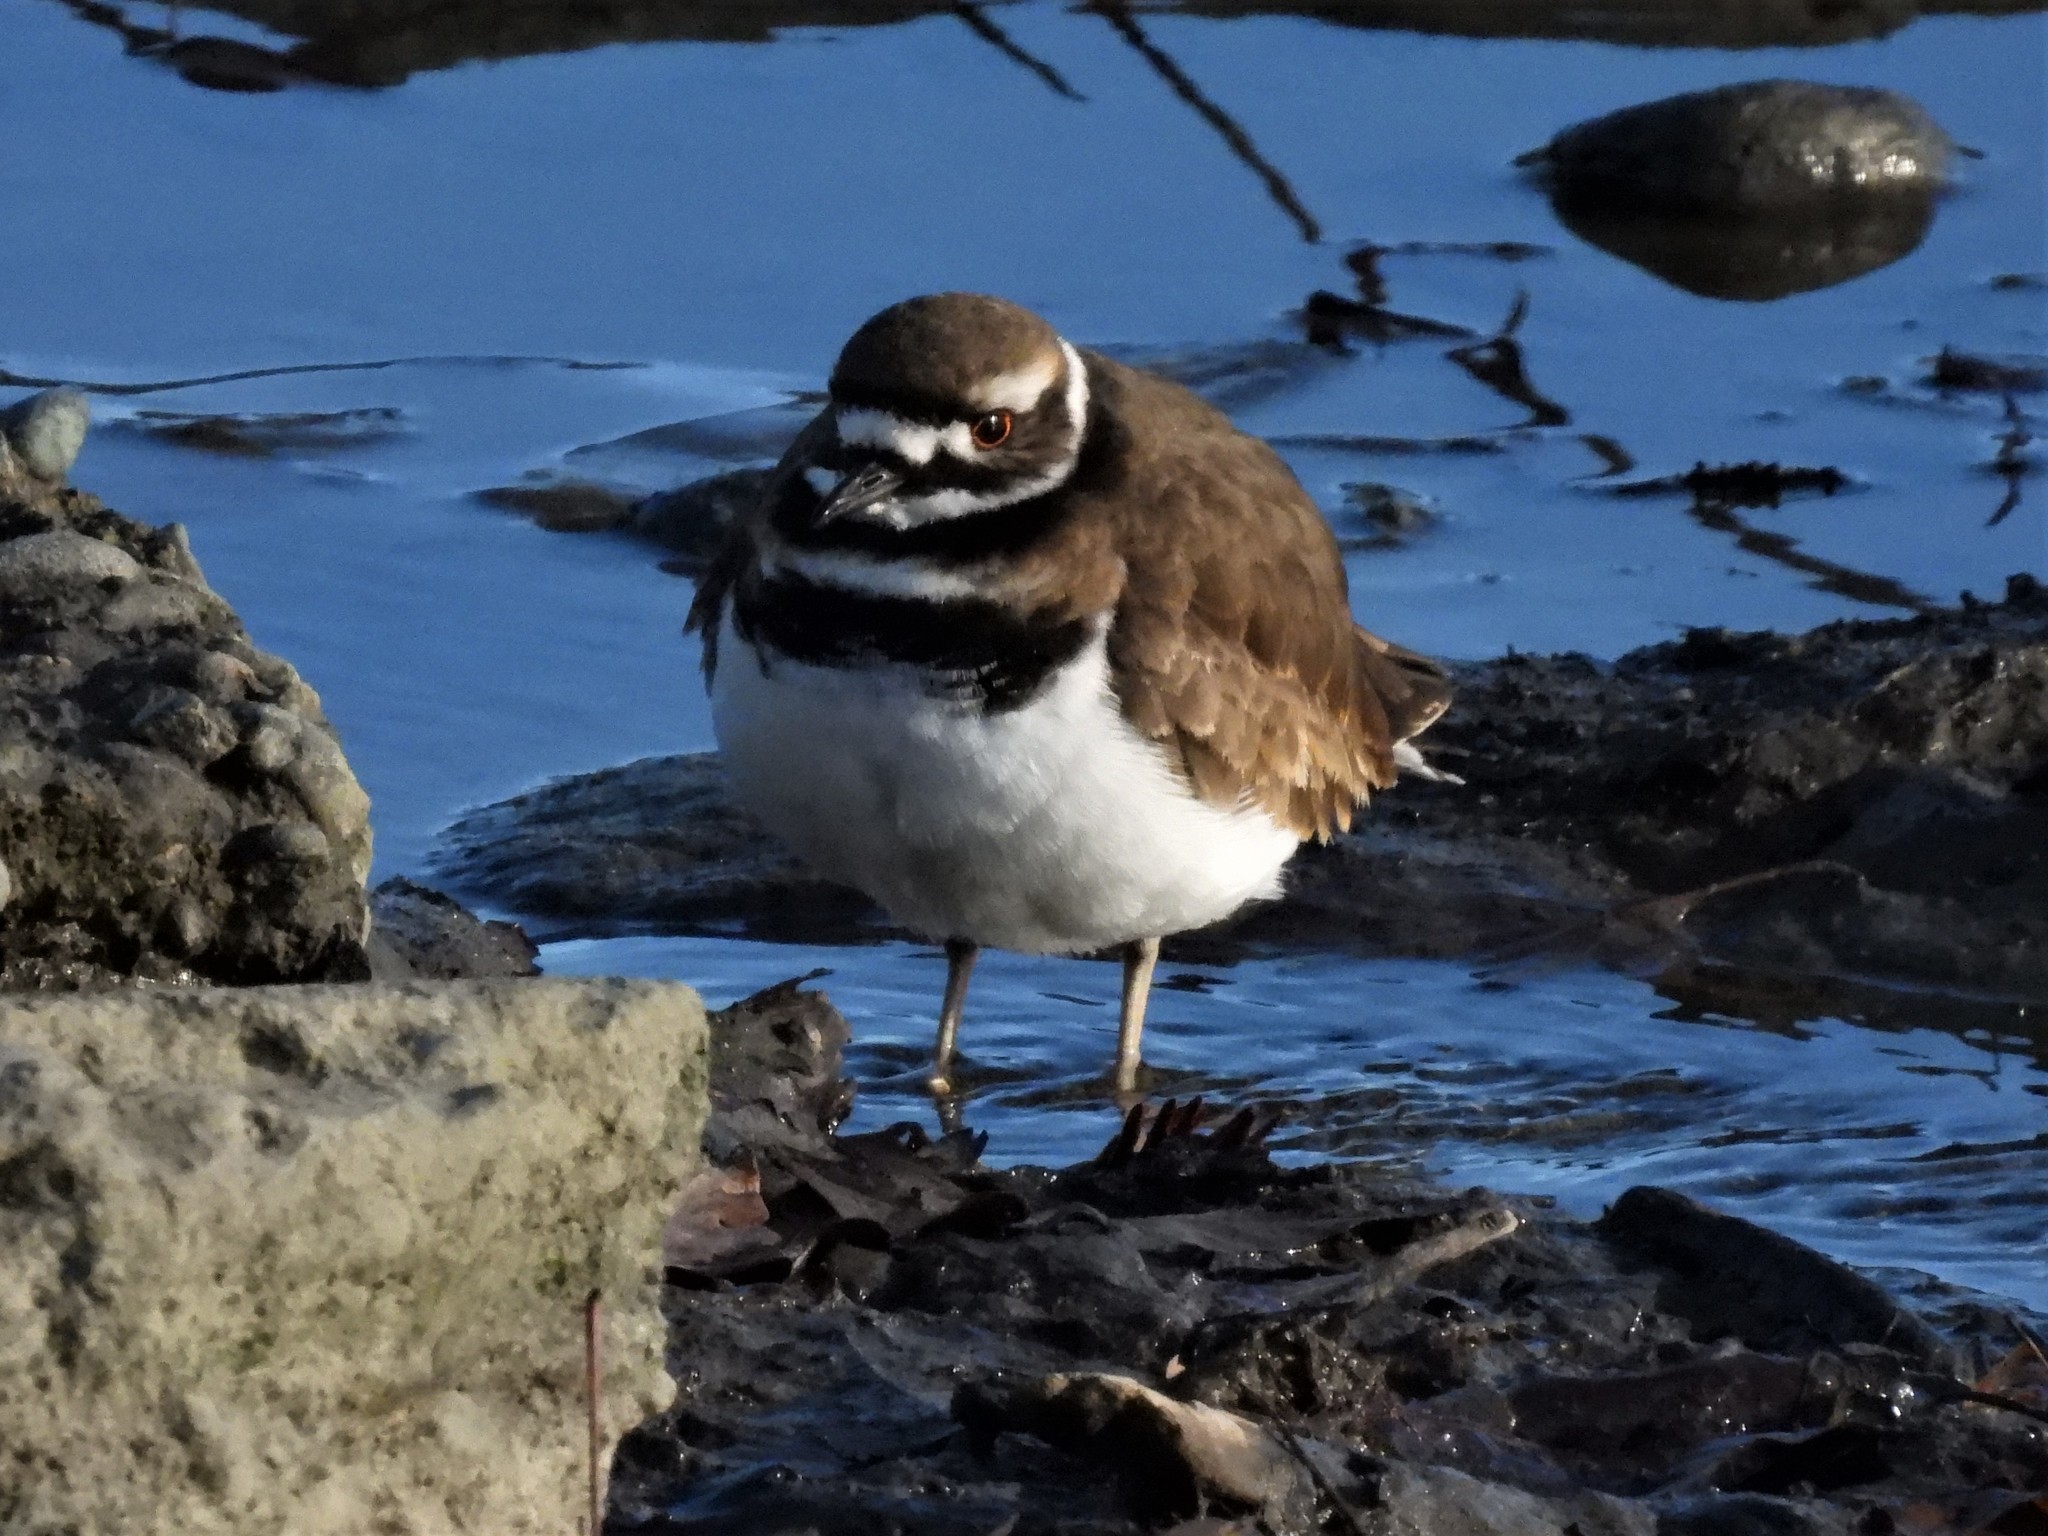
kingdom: Animalia
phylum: Chordata
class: Aves
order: Charadriiformes
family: Charadriidae
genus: Charadrius
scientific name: Charadrius vociferus
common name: Killdeer
